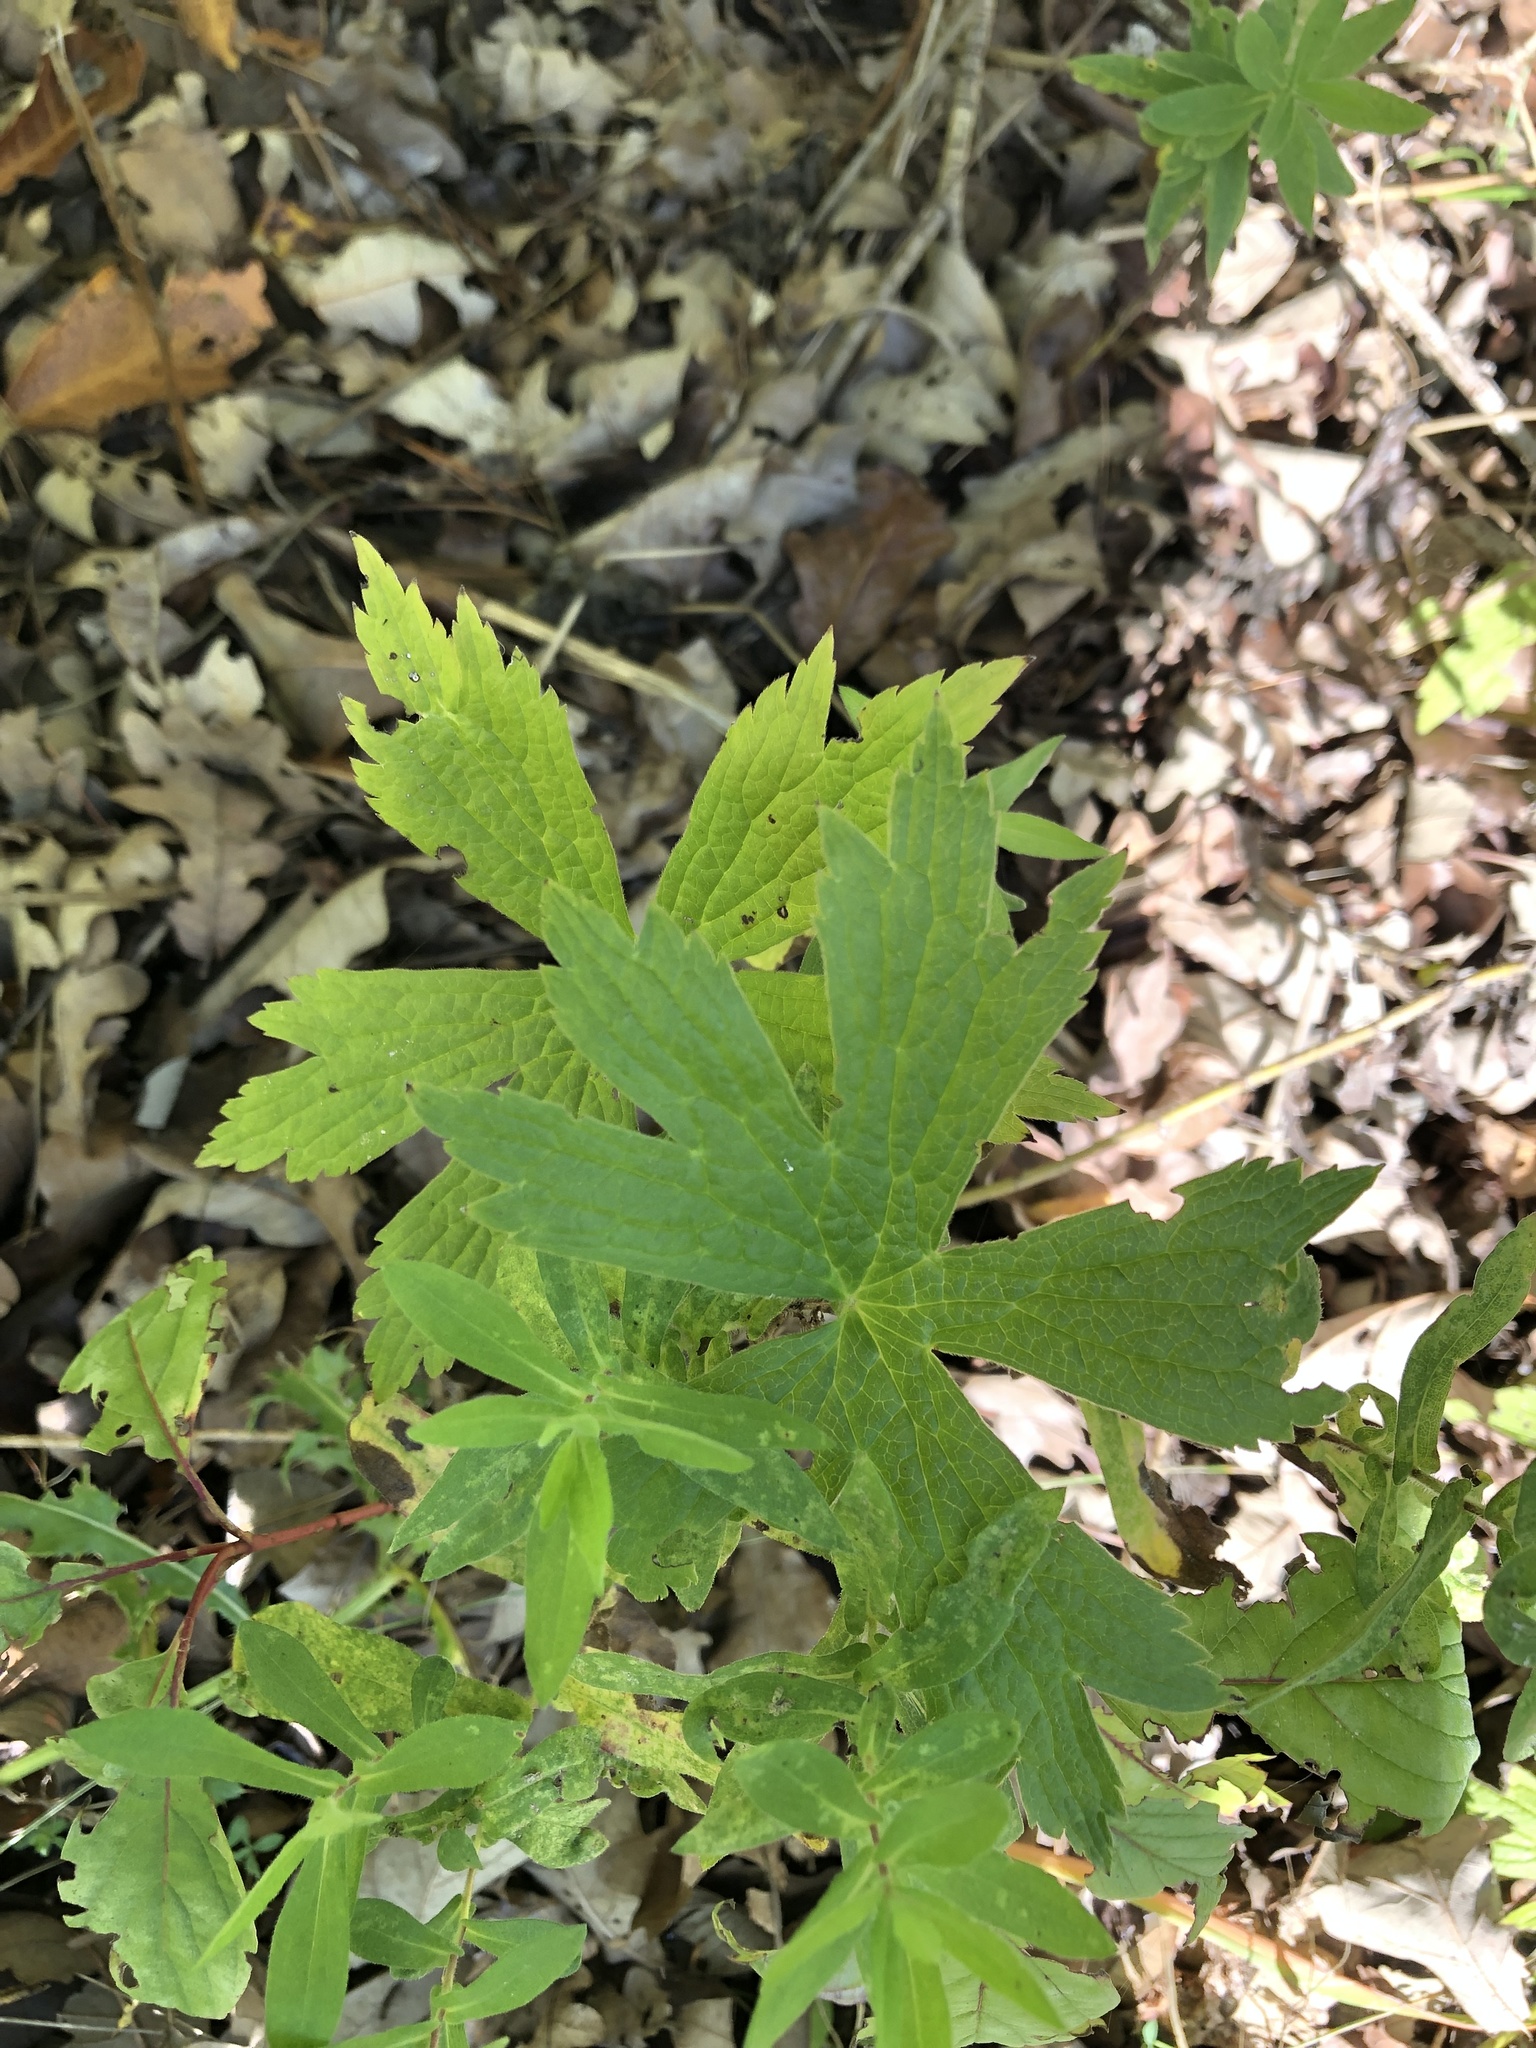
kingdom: Plantae
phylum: Tracheophyta
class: Magnoliopsida
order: Ranunculales
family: Ranunculaceae
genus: Anemonastrum
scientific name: Anemonastrum canadense
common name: Canada anemone
